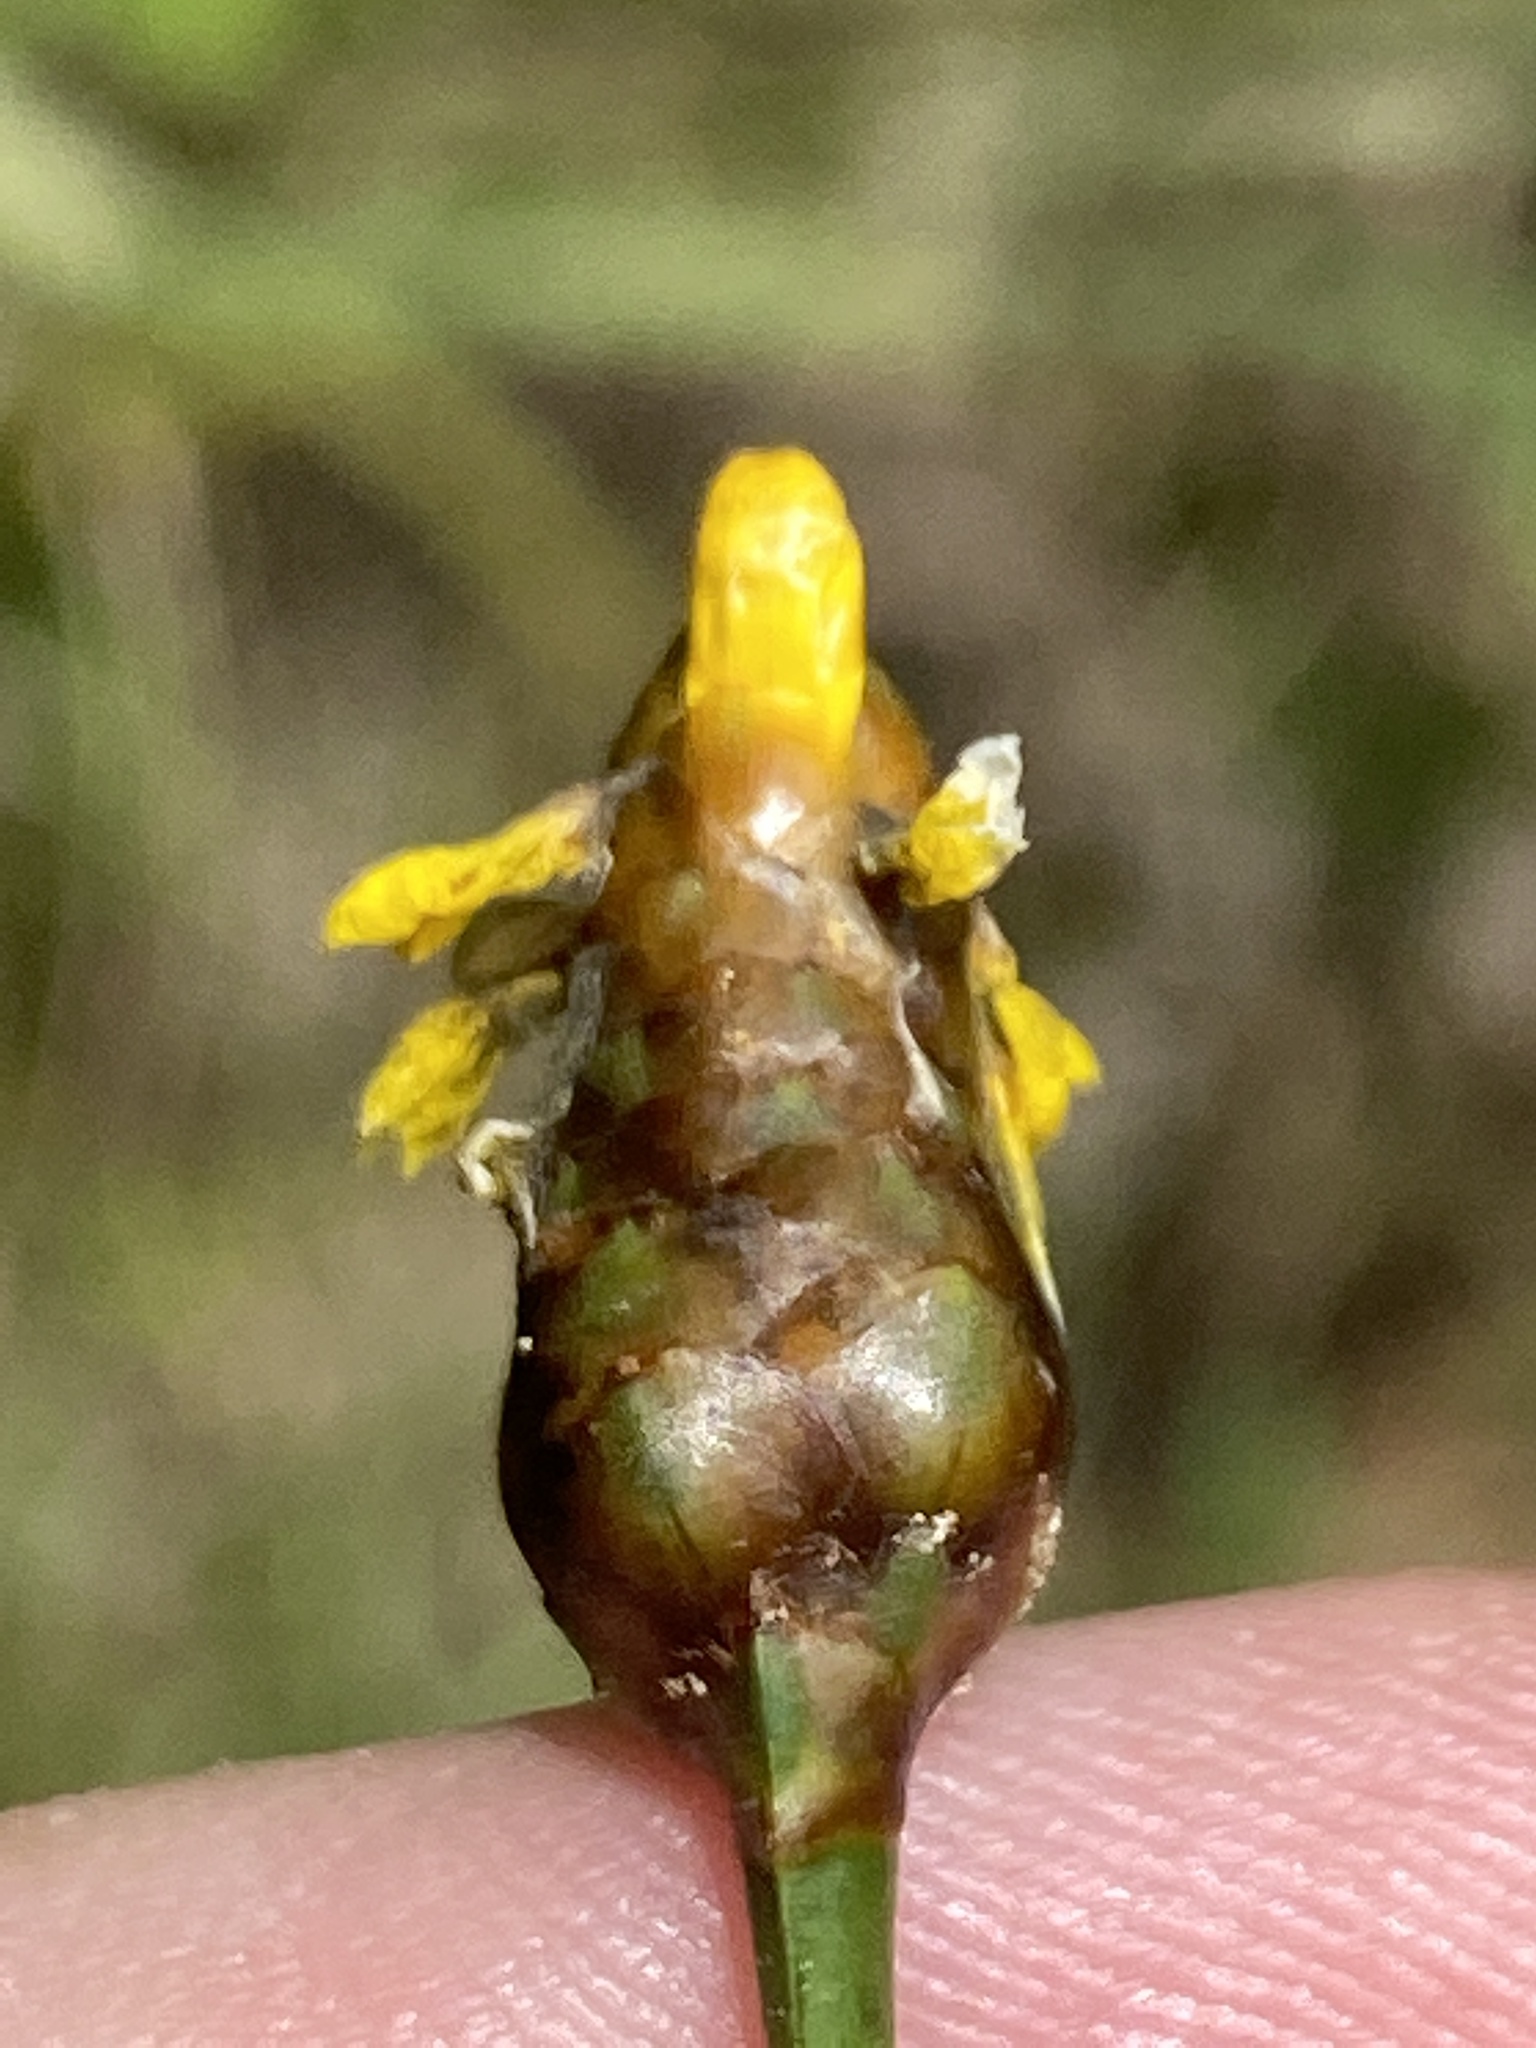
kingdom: Plantae
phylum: Tracheophyta
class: Liliopsida
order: Poales
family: Xyridaceae
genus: Xyris
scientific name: Xyris smalliana
